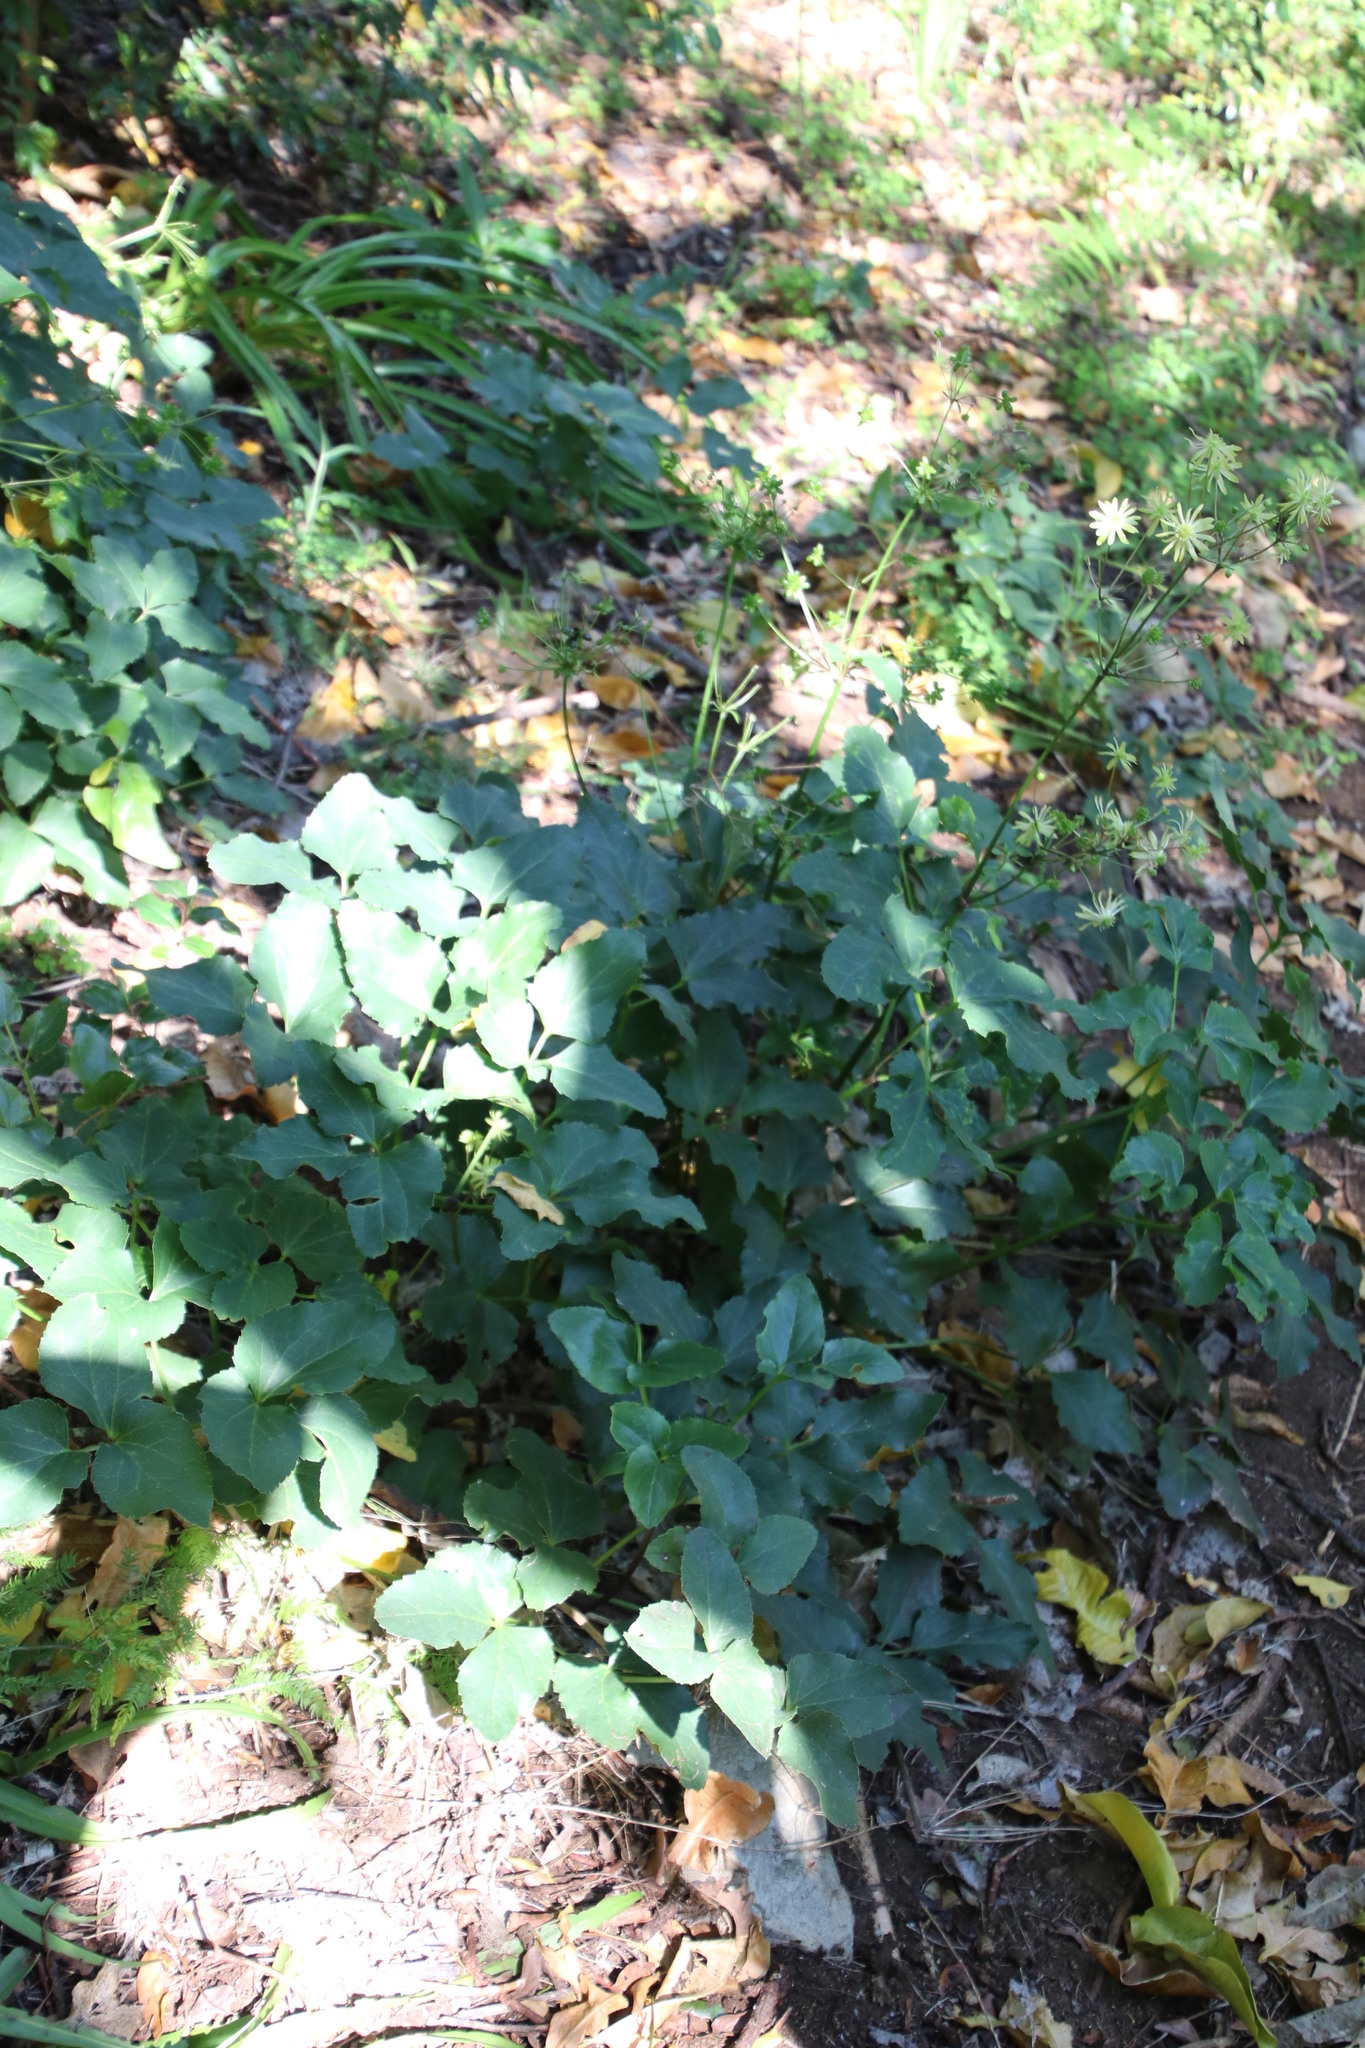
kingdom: Plantae
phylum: Tracheophyta
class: Magnoliopsida
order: Ranunculales
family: Ranunculaceae
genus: Knowltonia
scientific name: Knowltonia vesicatoria
